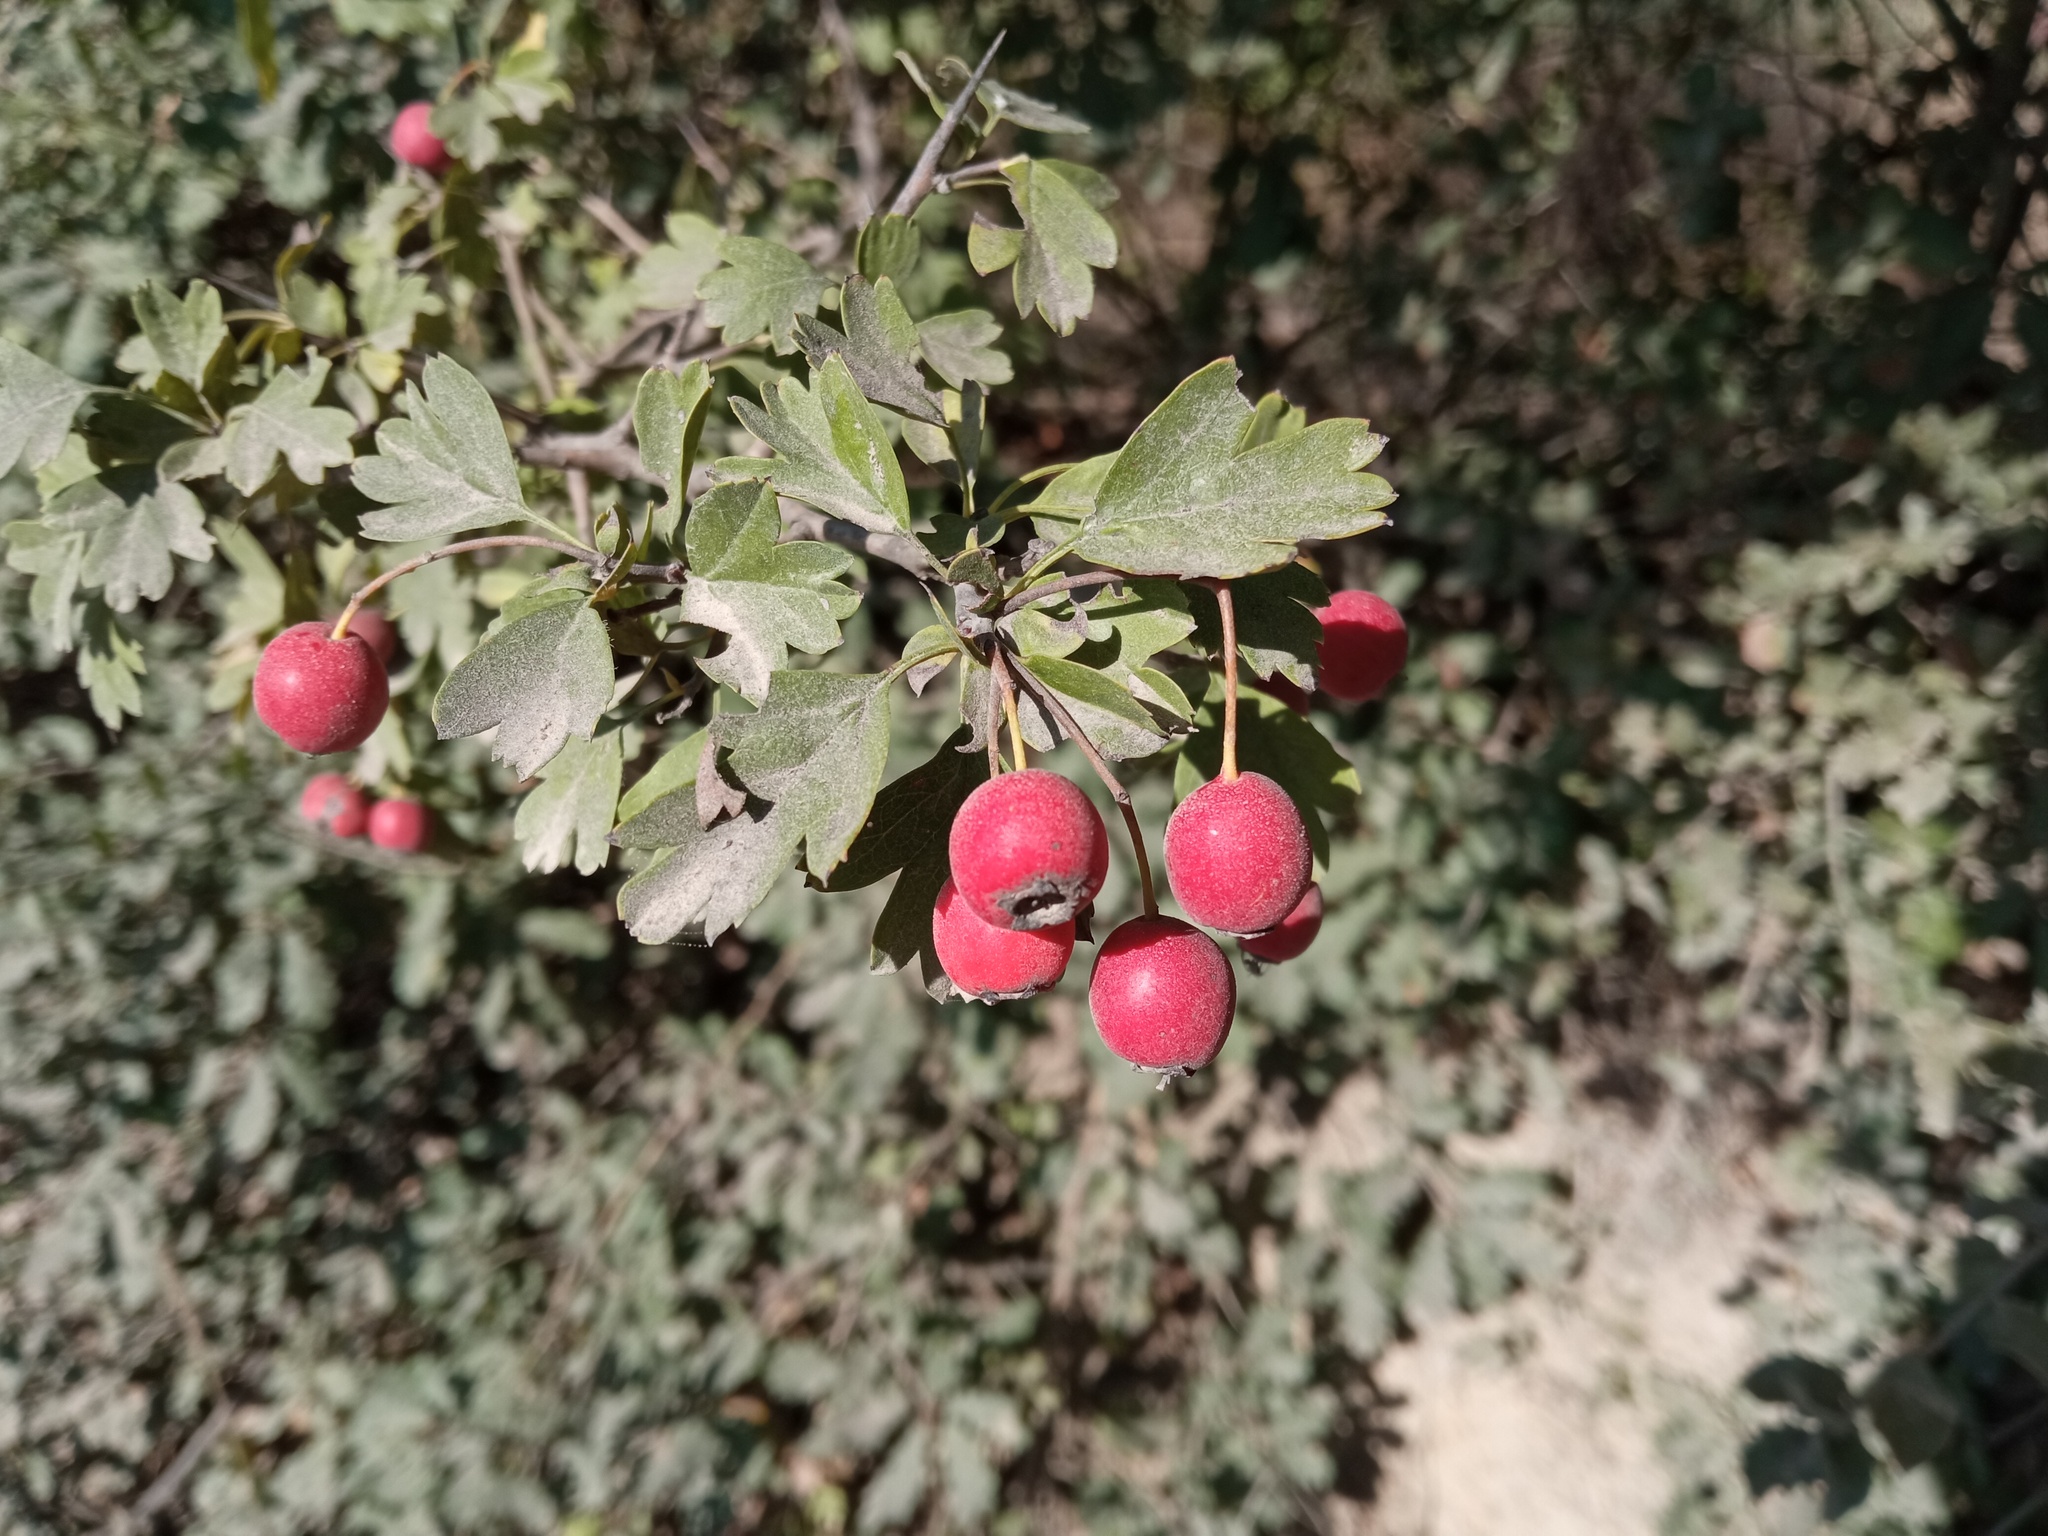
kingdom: Plantae
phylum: Tracheophyta
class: Magnoliopsida
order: Rosales
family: Rosaceae
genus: Crataegus
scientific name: Crataegus monogyna
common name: Hawthorn
